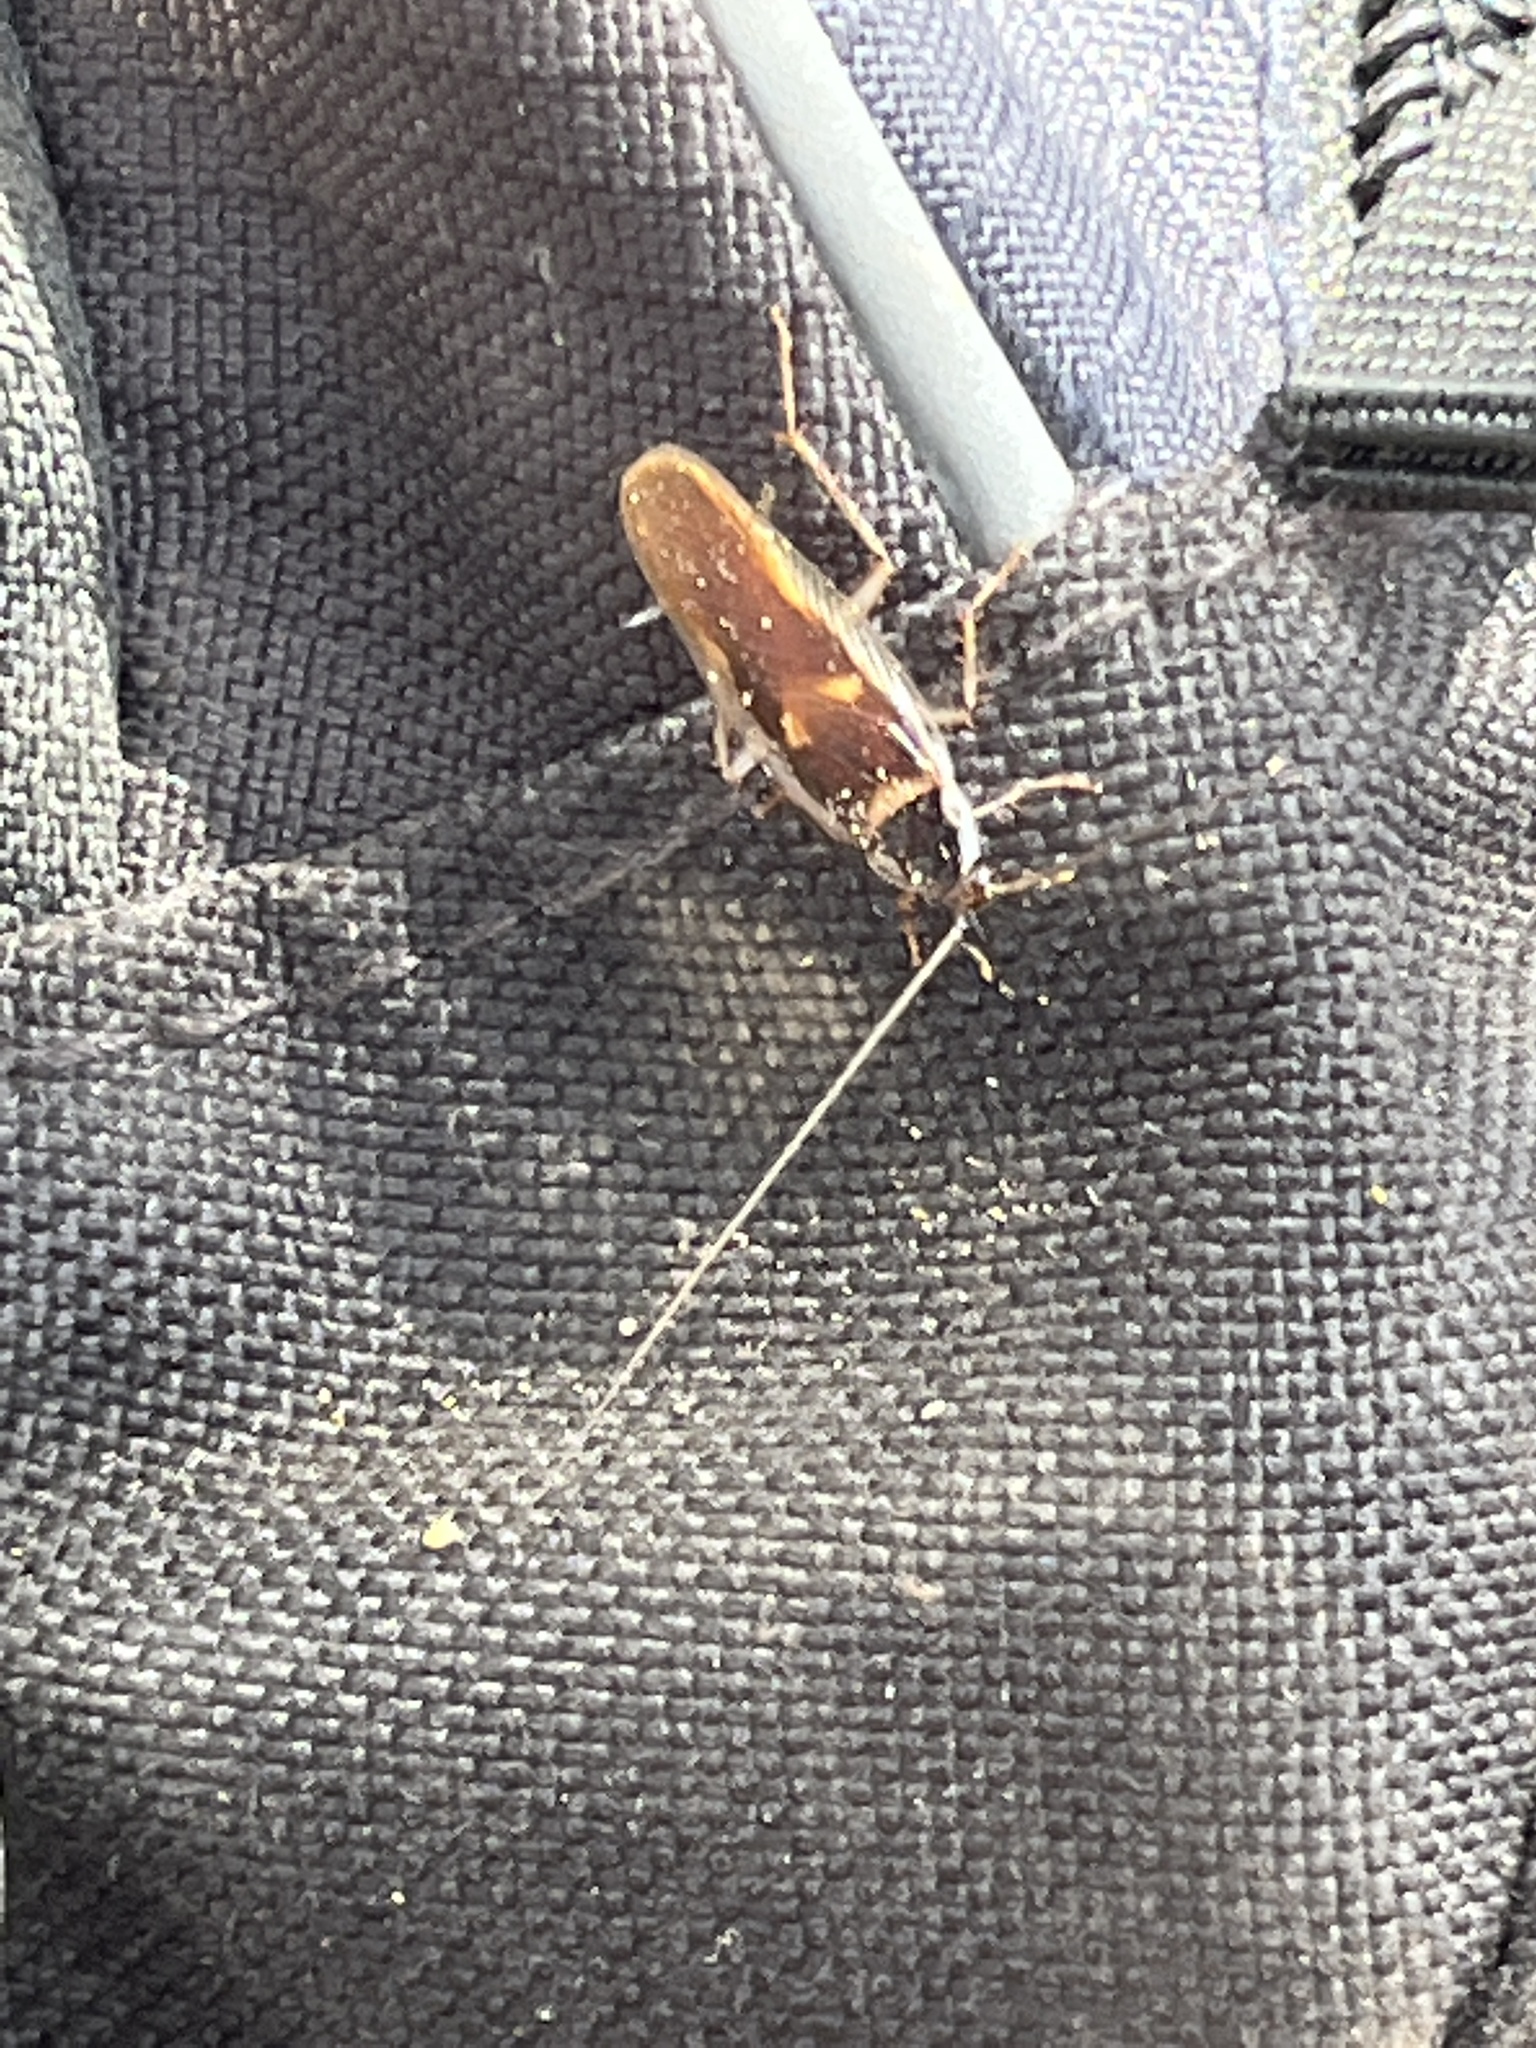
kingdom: Animalia
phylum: Arthropoda
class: Insecta
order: Blattodea
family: Ectobiidae
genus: Supella
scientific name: Supella dimidiata
